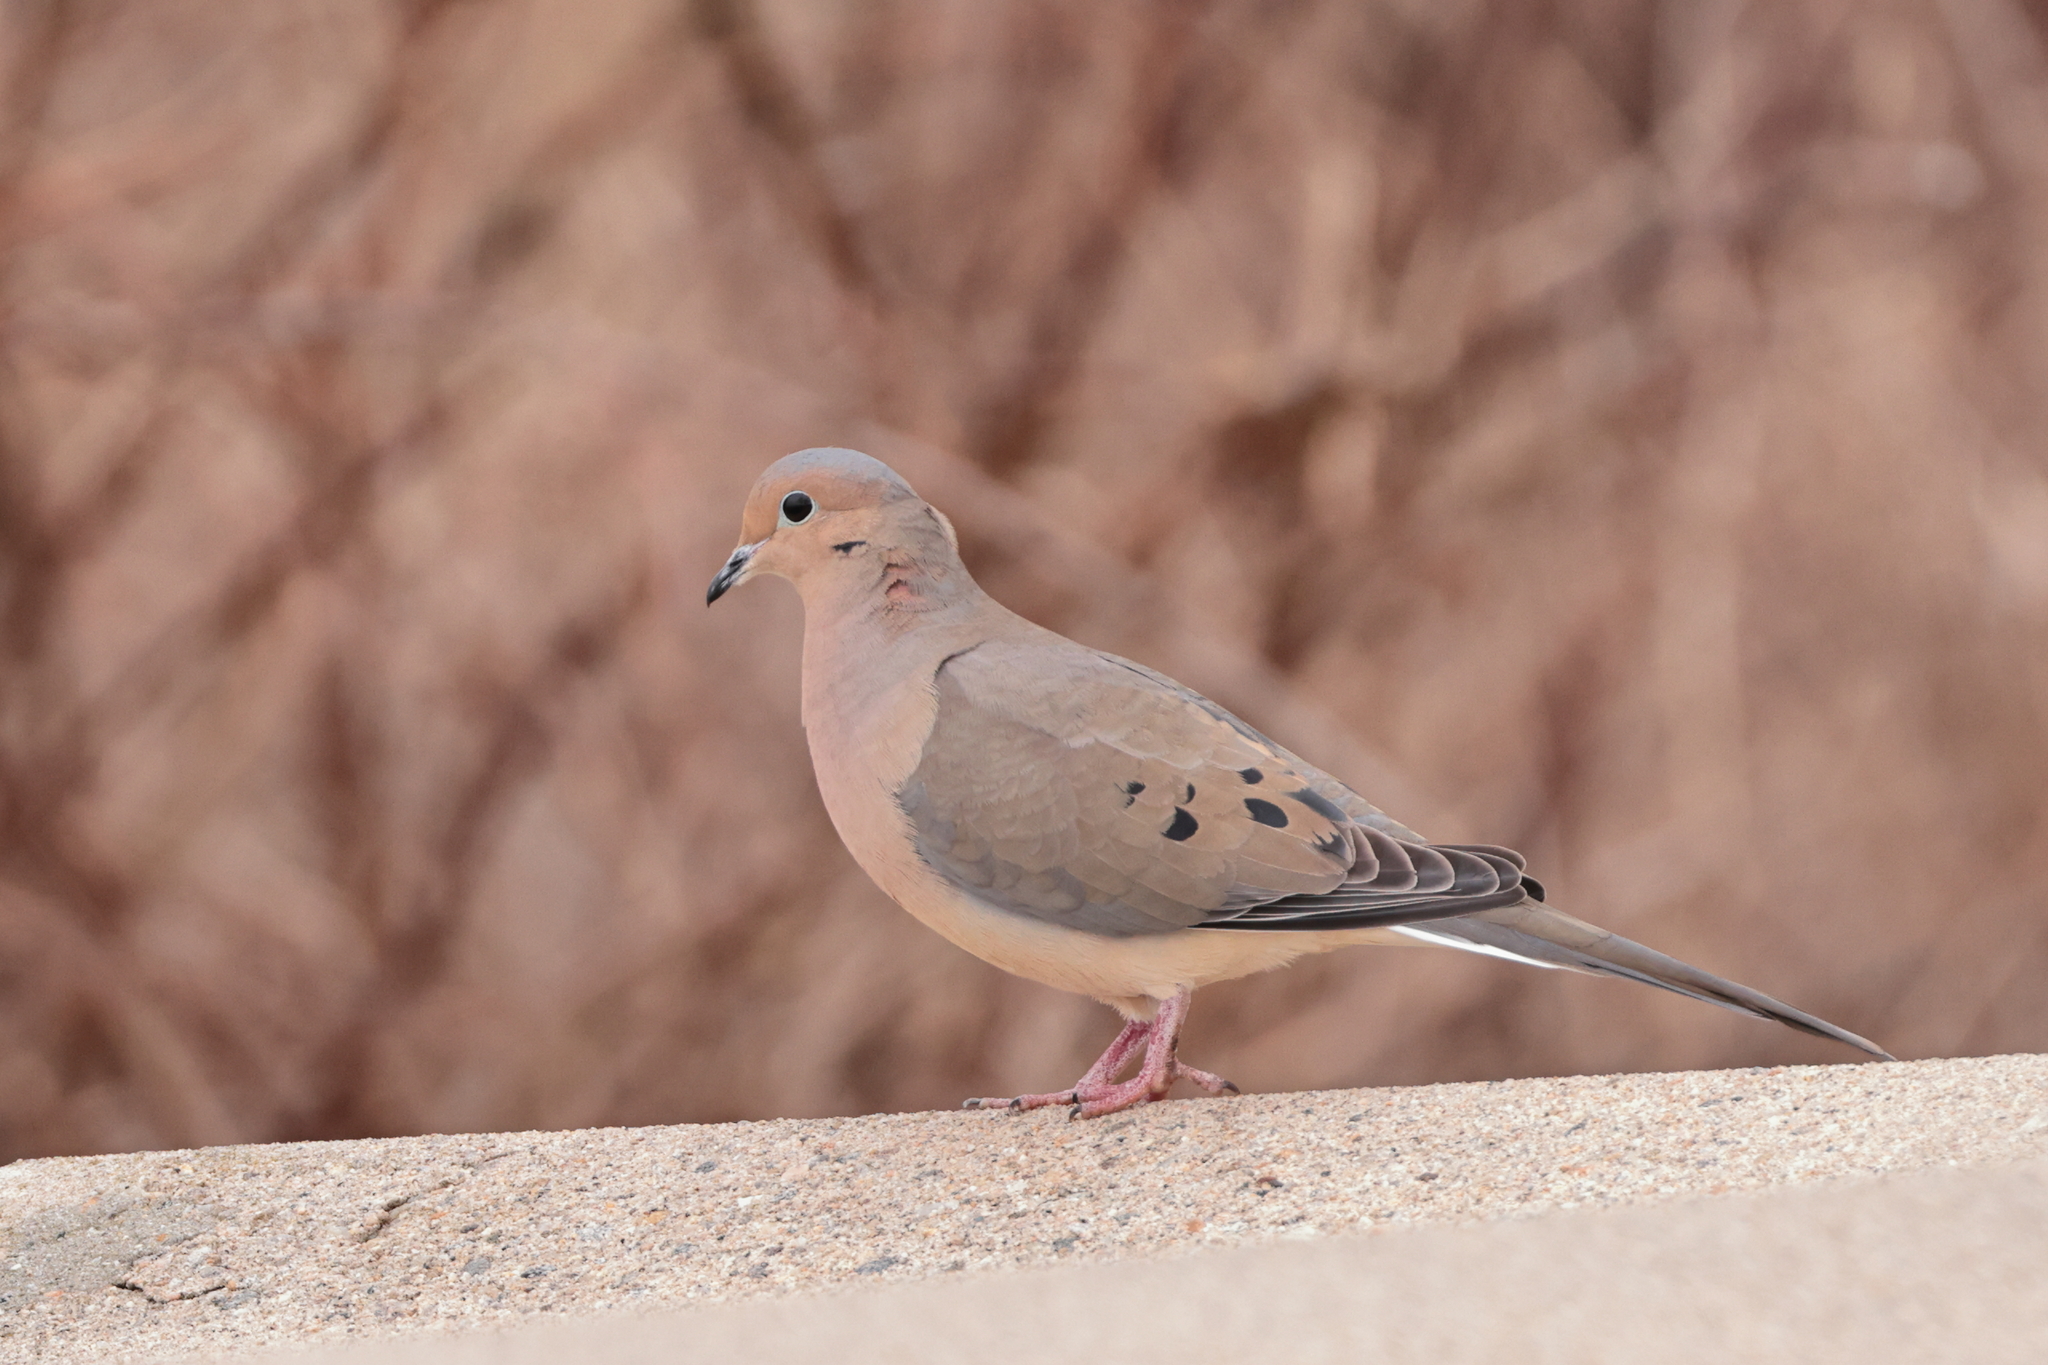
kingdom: Animalia
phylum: Chordata
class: Aves
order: Columbiformes
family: Columbidae
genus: Zenaida
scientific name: Zenaida macroura
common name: Mourning dove
